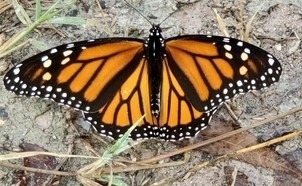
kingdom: Animalia
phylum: Arthropoda
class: Insecta
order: Lepidoptera
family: Nymphalidae
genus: Danaus
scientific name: Danaus plexippus
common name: Monarch
